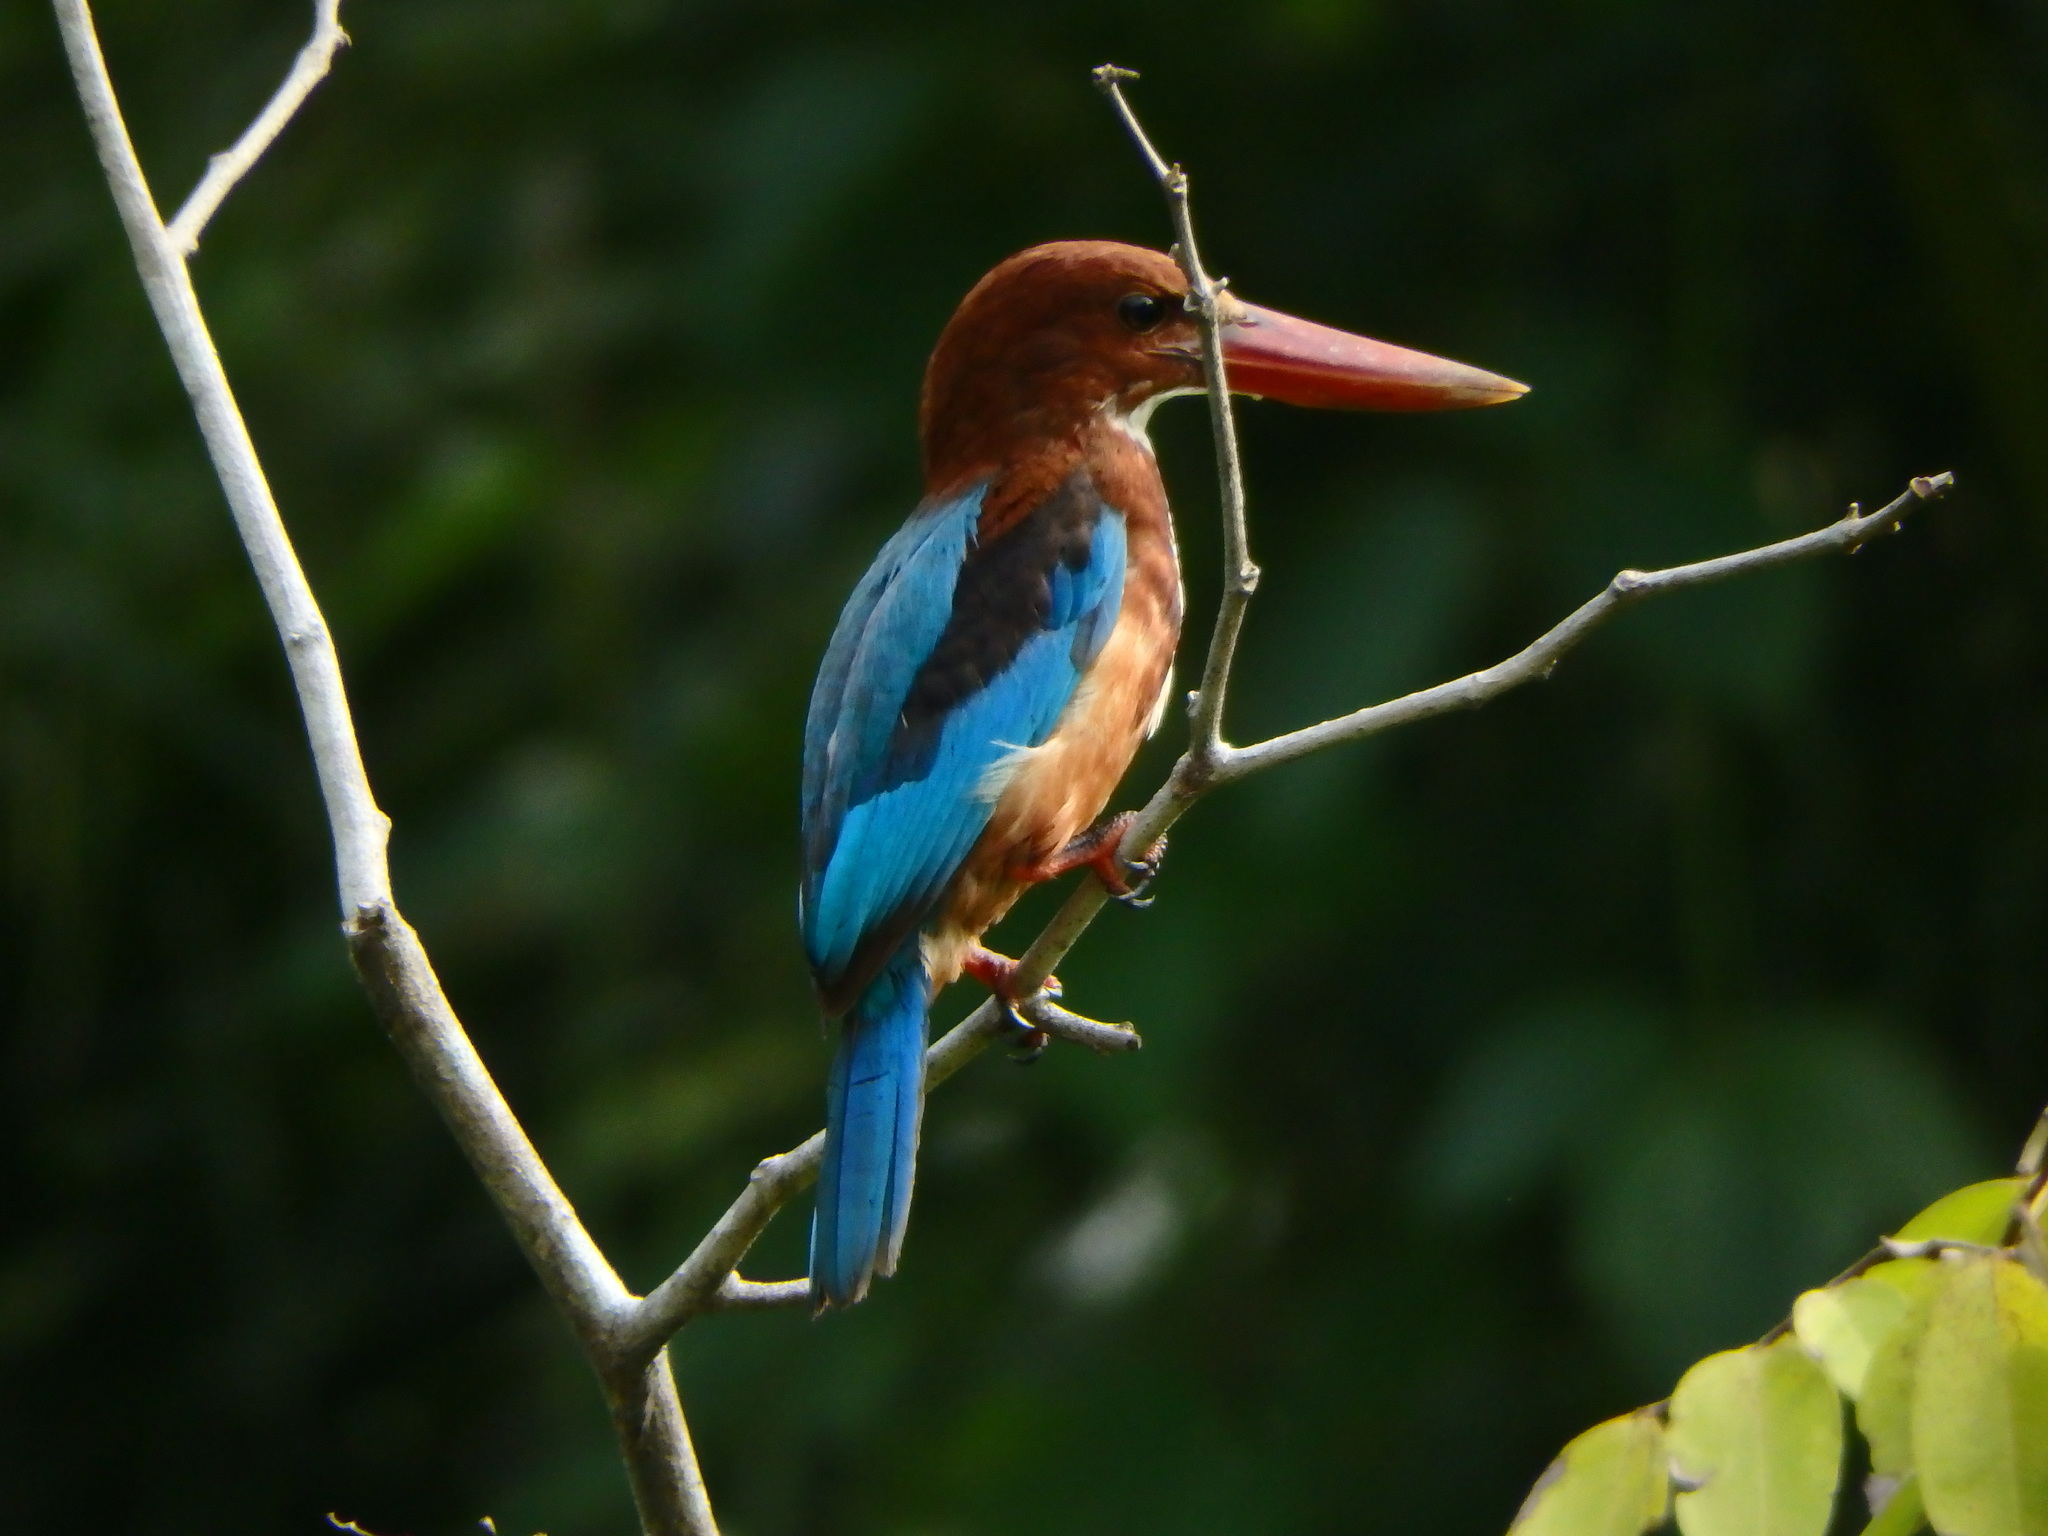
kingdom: Animalia
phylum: Chordata
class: Aves
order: Coraciiformes
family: Alcedinidae
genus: Halcyon
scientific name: Halcyon smyrnensis
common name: White-throated kingfisher
